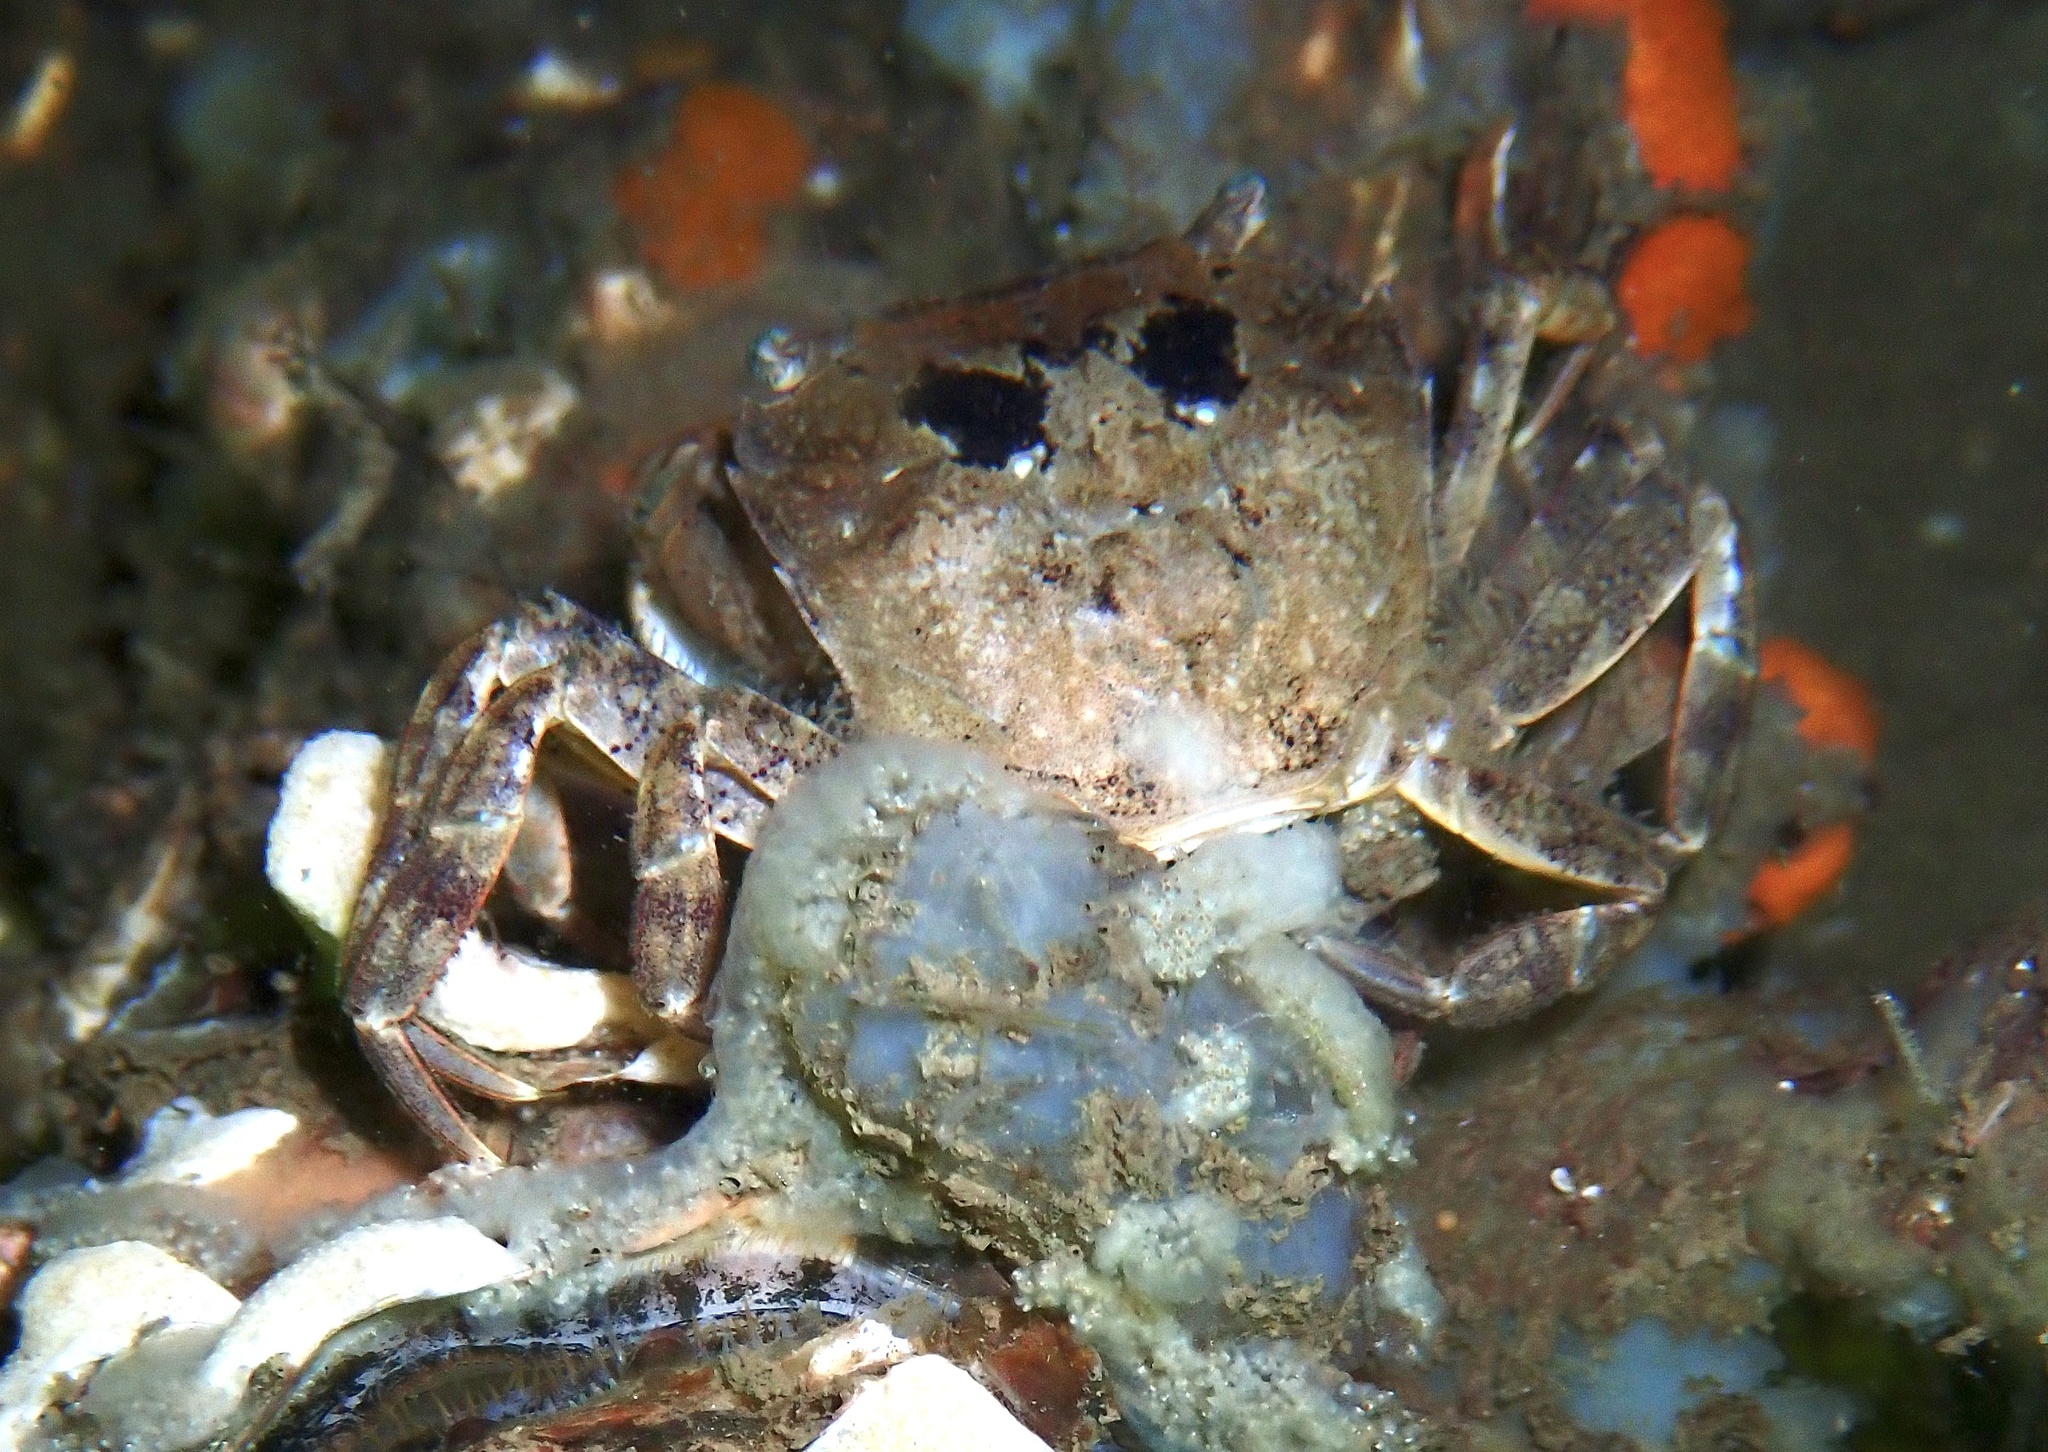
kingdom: Animalia
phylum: Arthropoda
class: Malacostraca
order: Decapoda
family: Varunidae
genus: Hemigrapsus
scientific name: Hemigrapsus takanoi
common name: Asian brush crab
